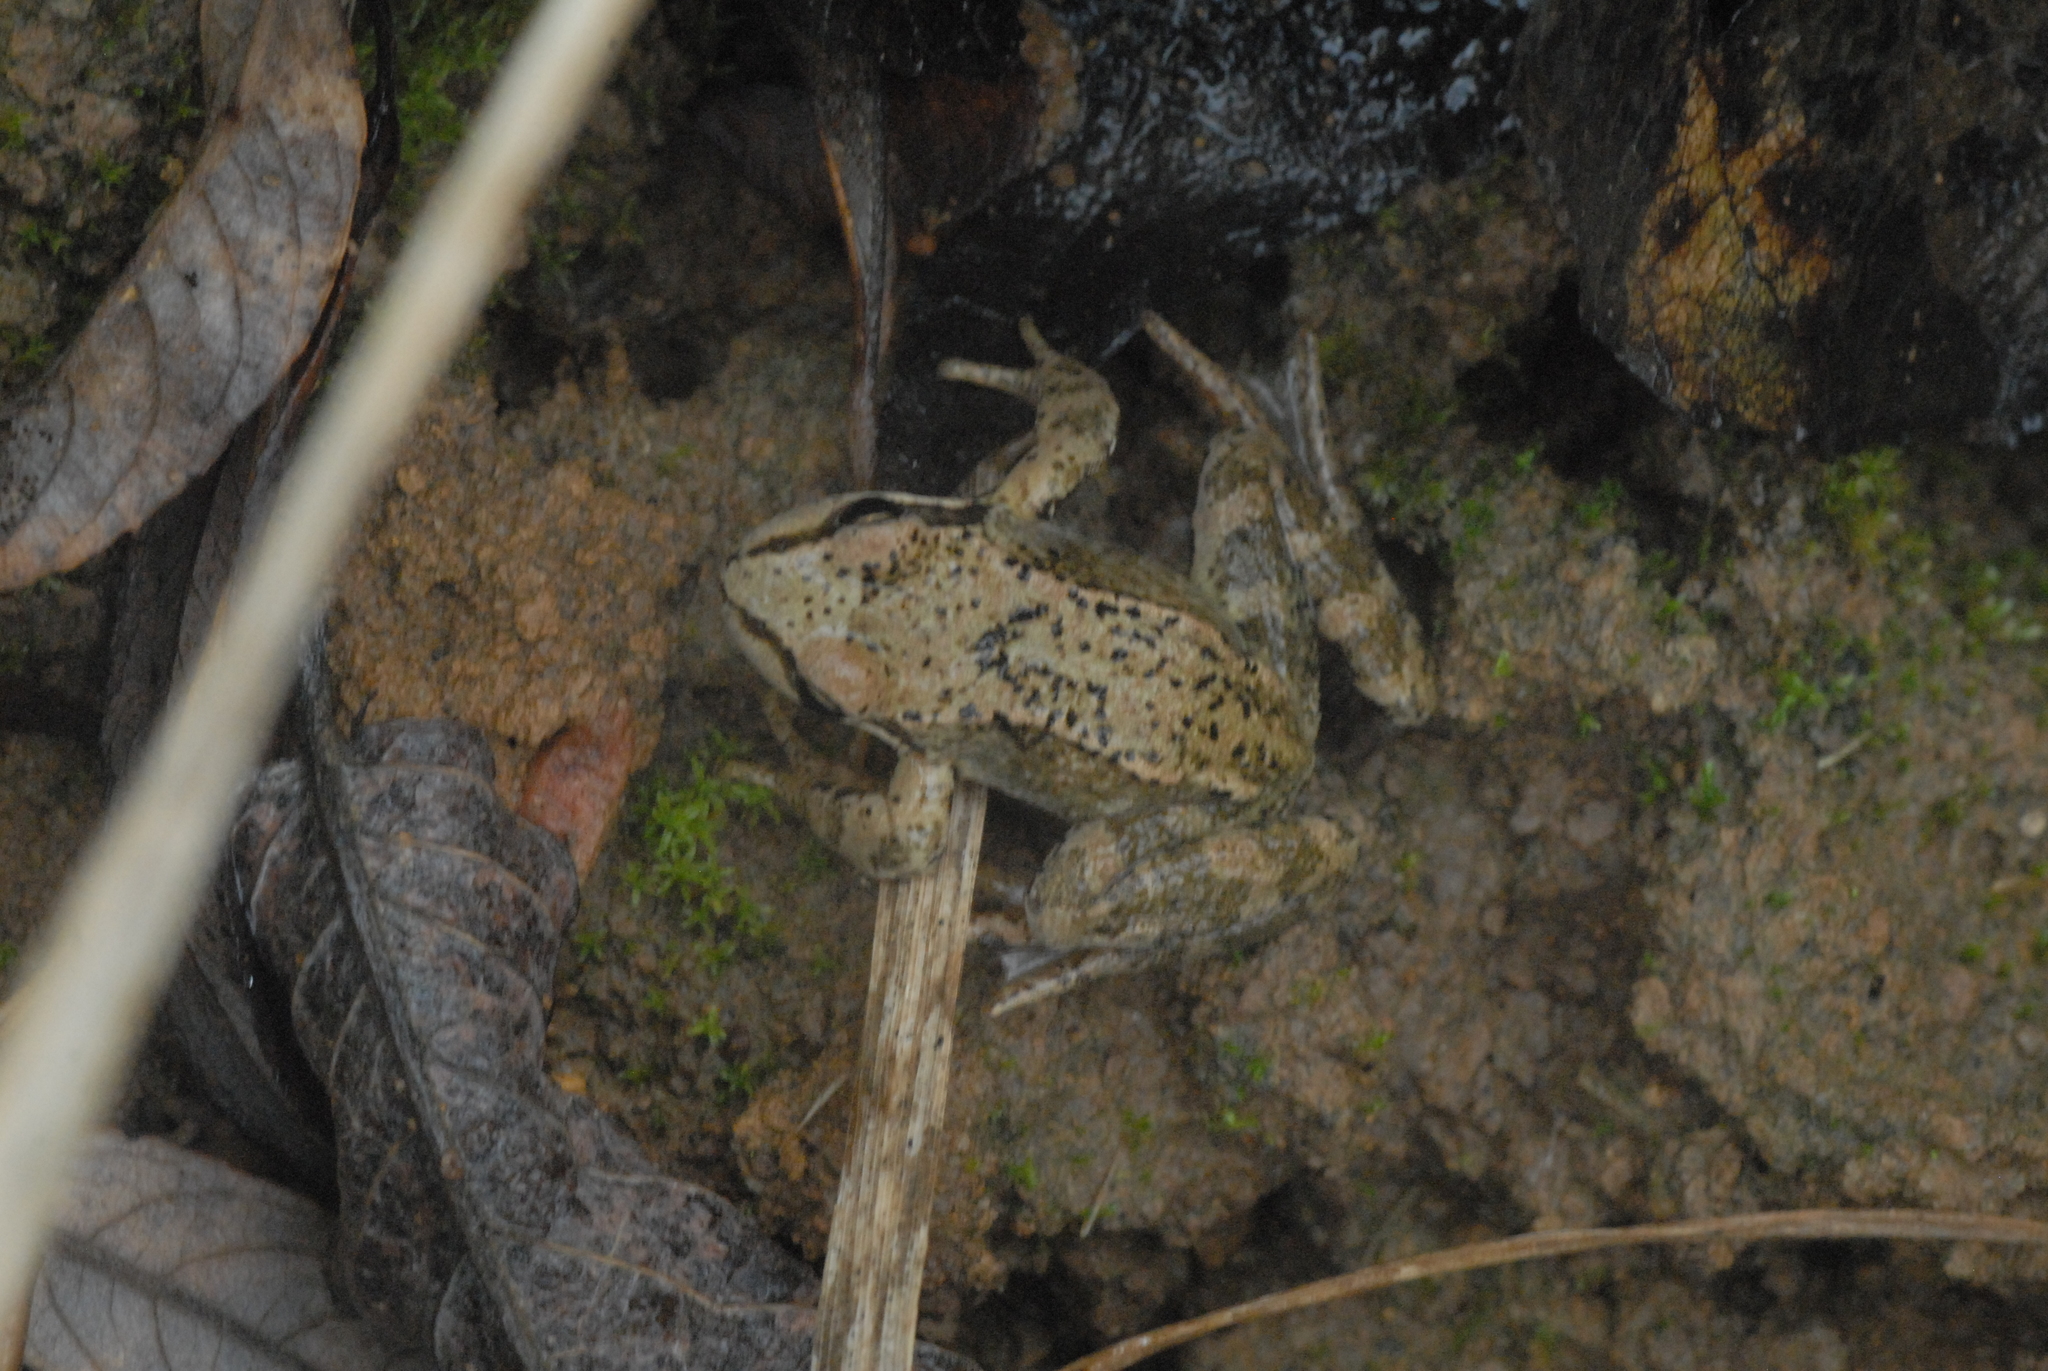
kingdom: Animalia
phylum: Chordata
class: Amphibia
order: Anura
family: Ranidae
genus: Rana
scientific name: Rana temporaria
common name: Common frog
